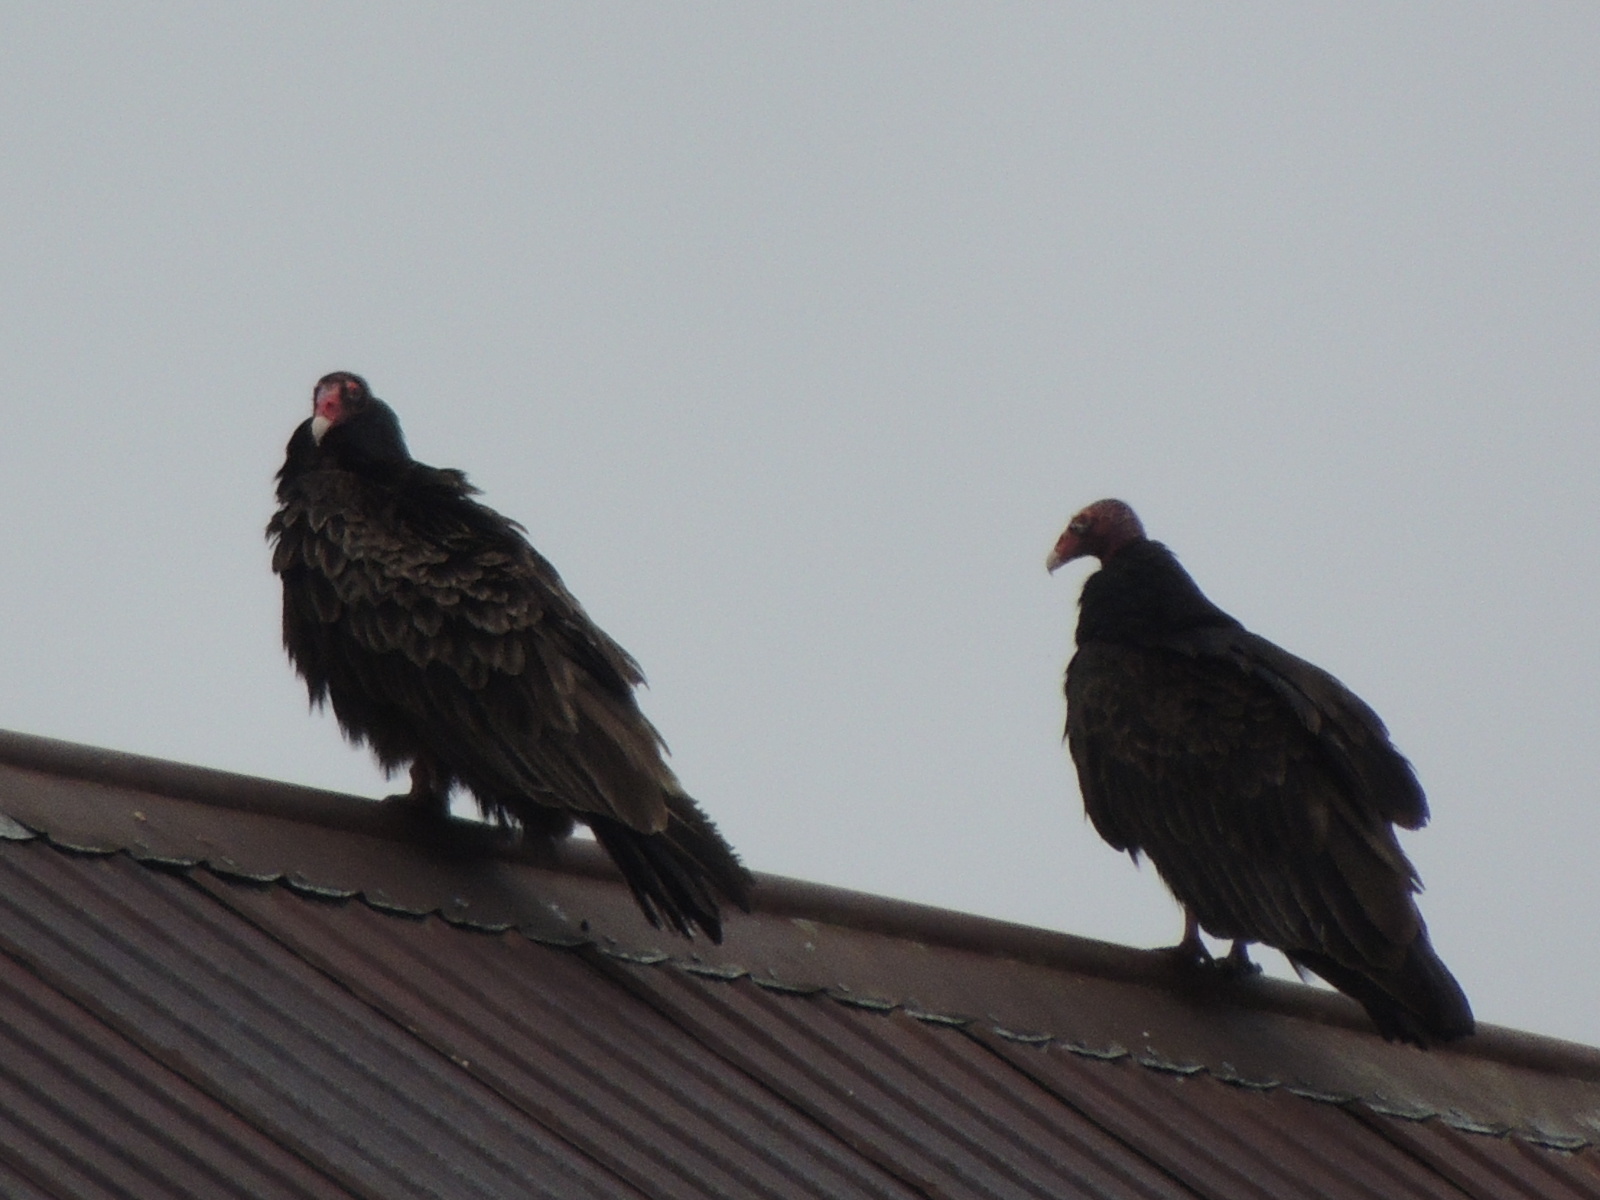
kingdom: Animalia
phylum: Chordata
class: Aves
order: Accipitriformes
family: Cathartidae
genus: Cathartes
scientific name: Cathartes aura
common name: Turkey vulture
